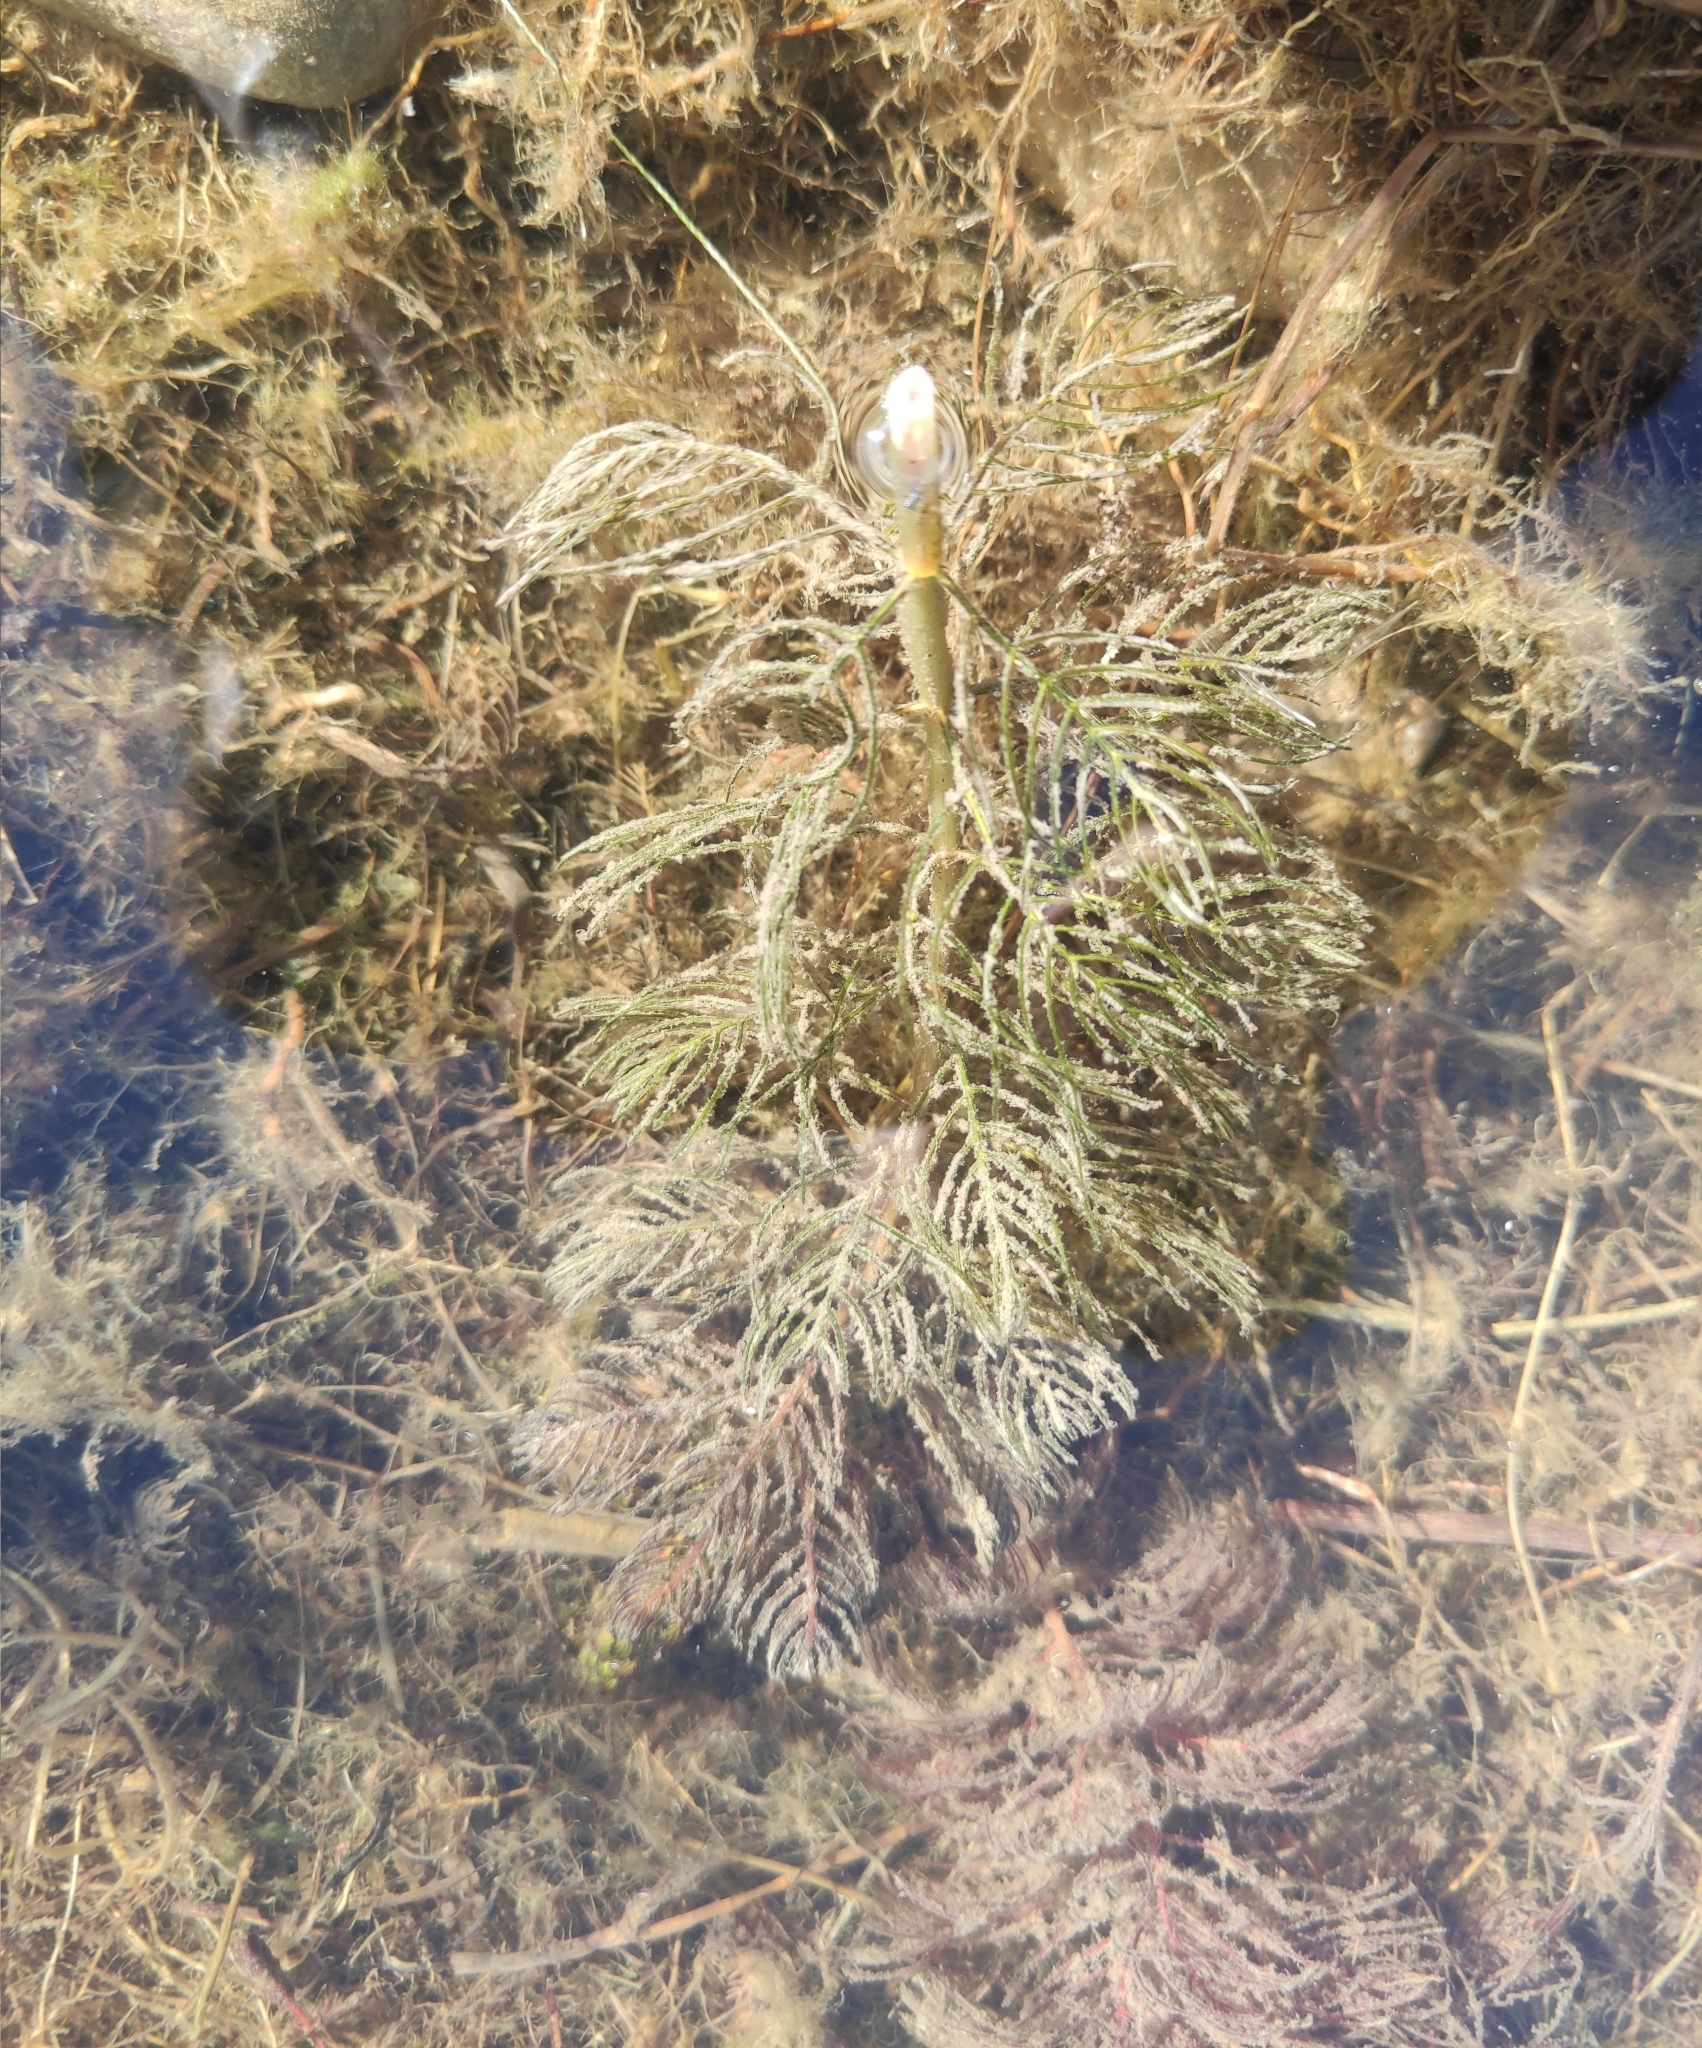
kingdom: Plantae
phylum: Tracheophyta
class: Magnoliopsida
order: Saxifragales
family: Haloragaceae
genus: Myriophyllum
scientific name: Myriophyllum sibiricum
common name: Siberian water-milfoil
